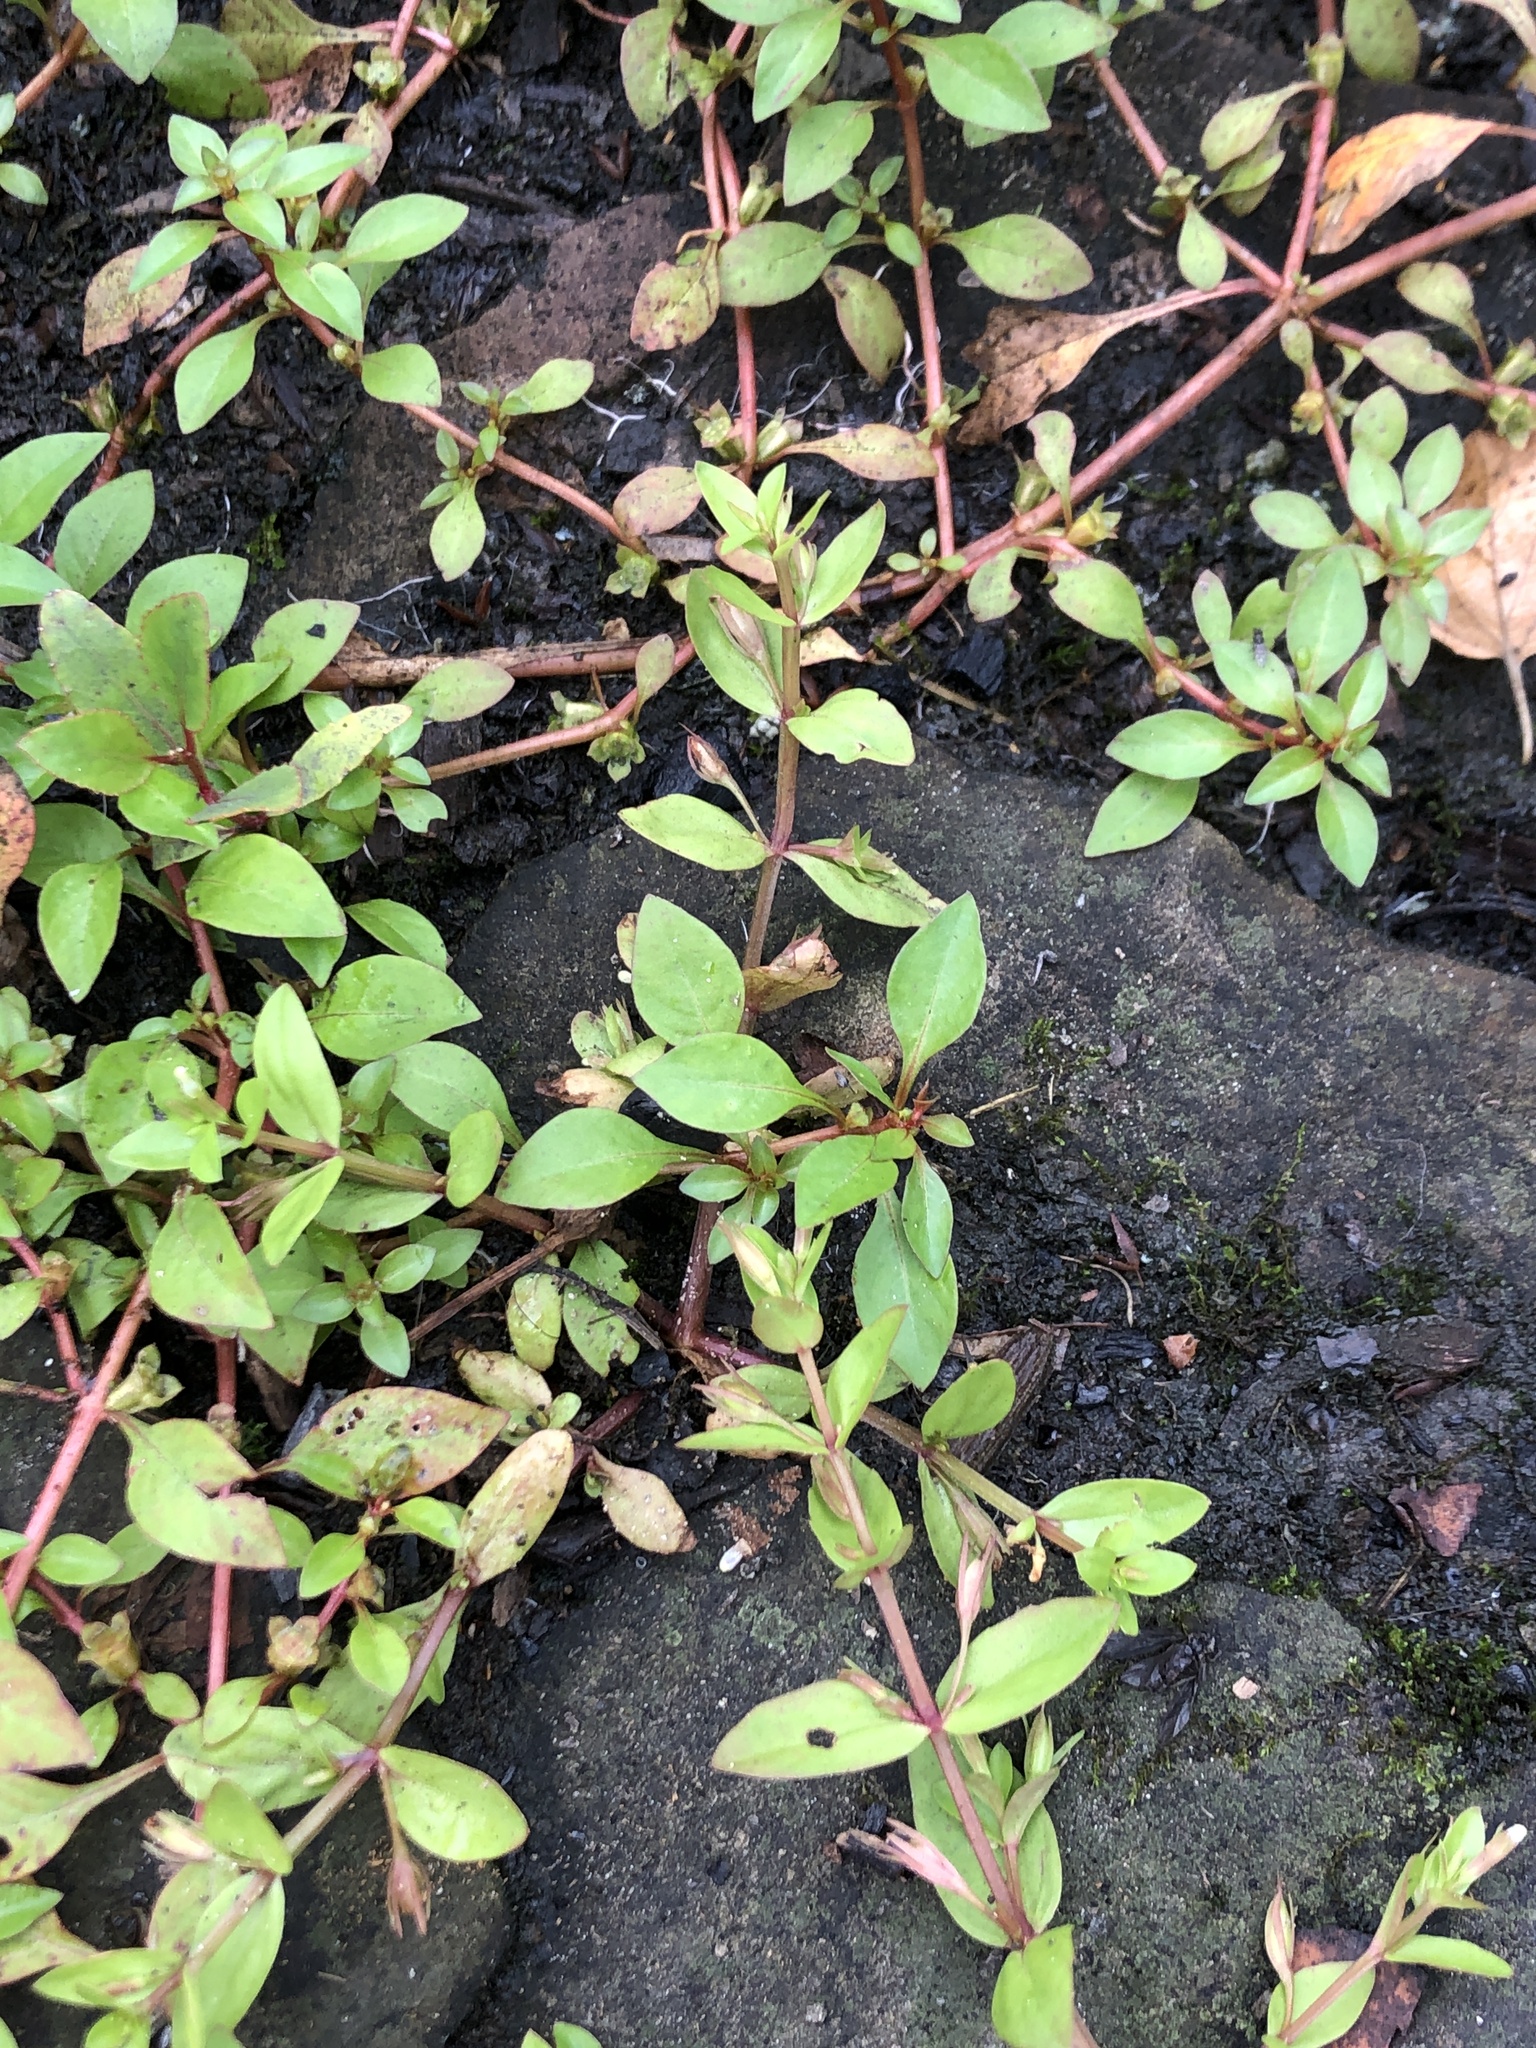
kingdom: Plantae
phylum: Tracheophyta
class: Magnoliopsida
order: Myrtales
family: Onagraceae
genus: Ludwigia
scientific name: Ludwigia palustris
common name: Hampshire-purslane
